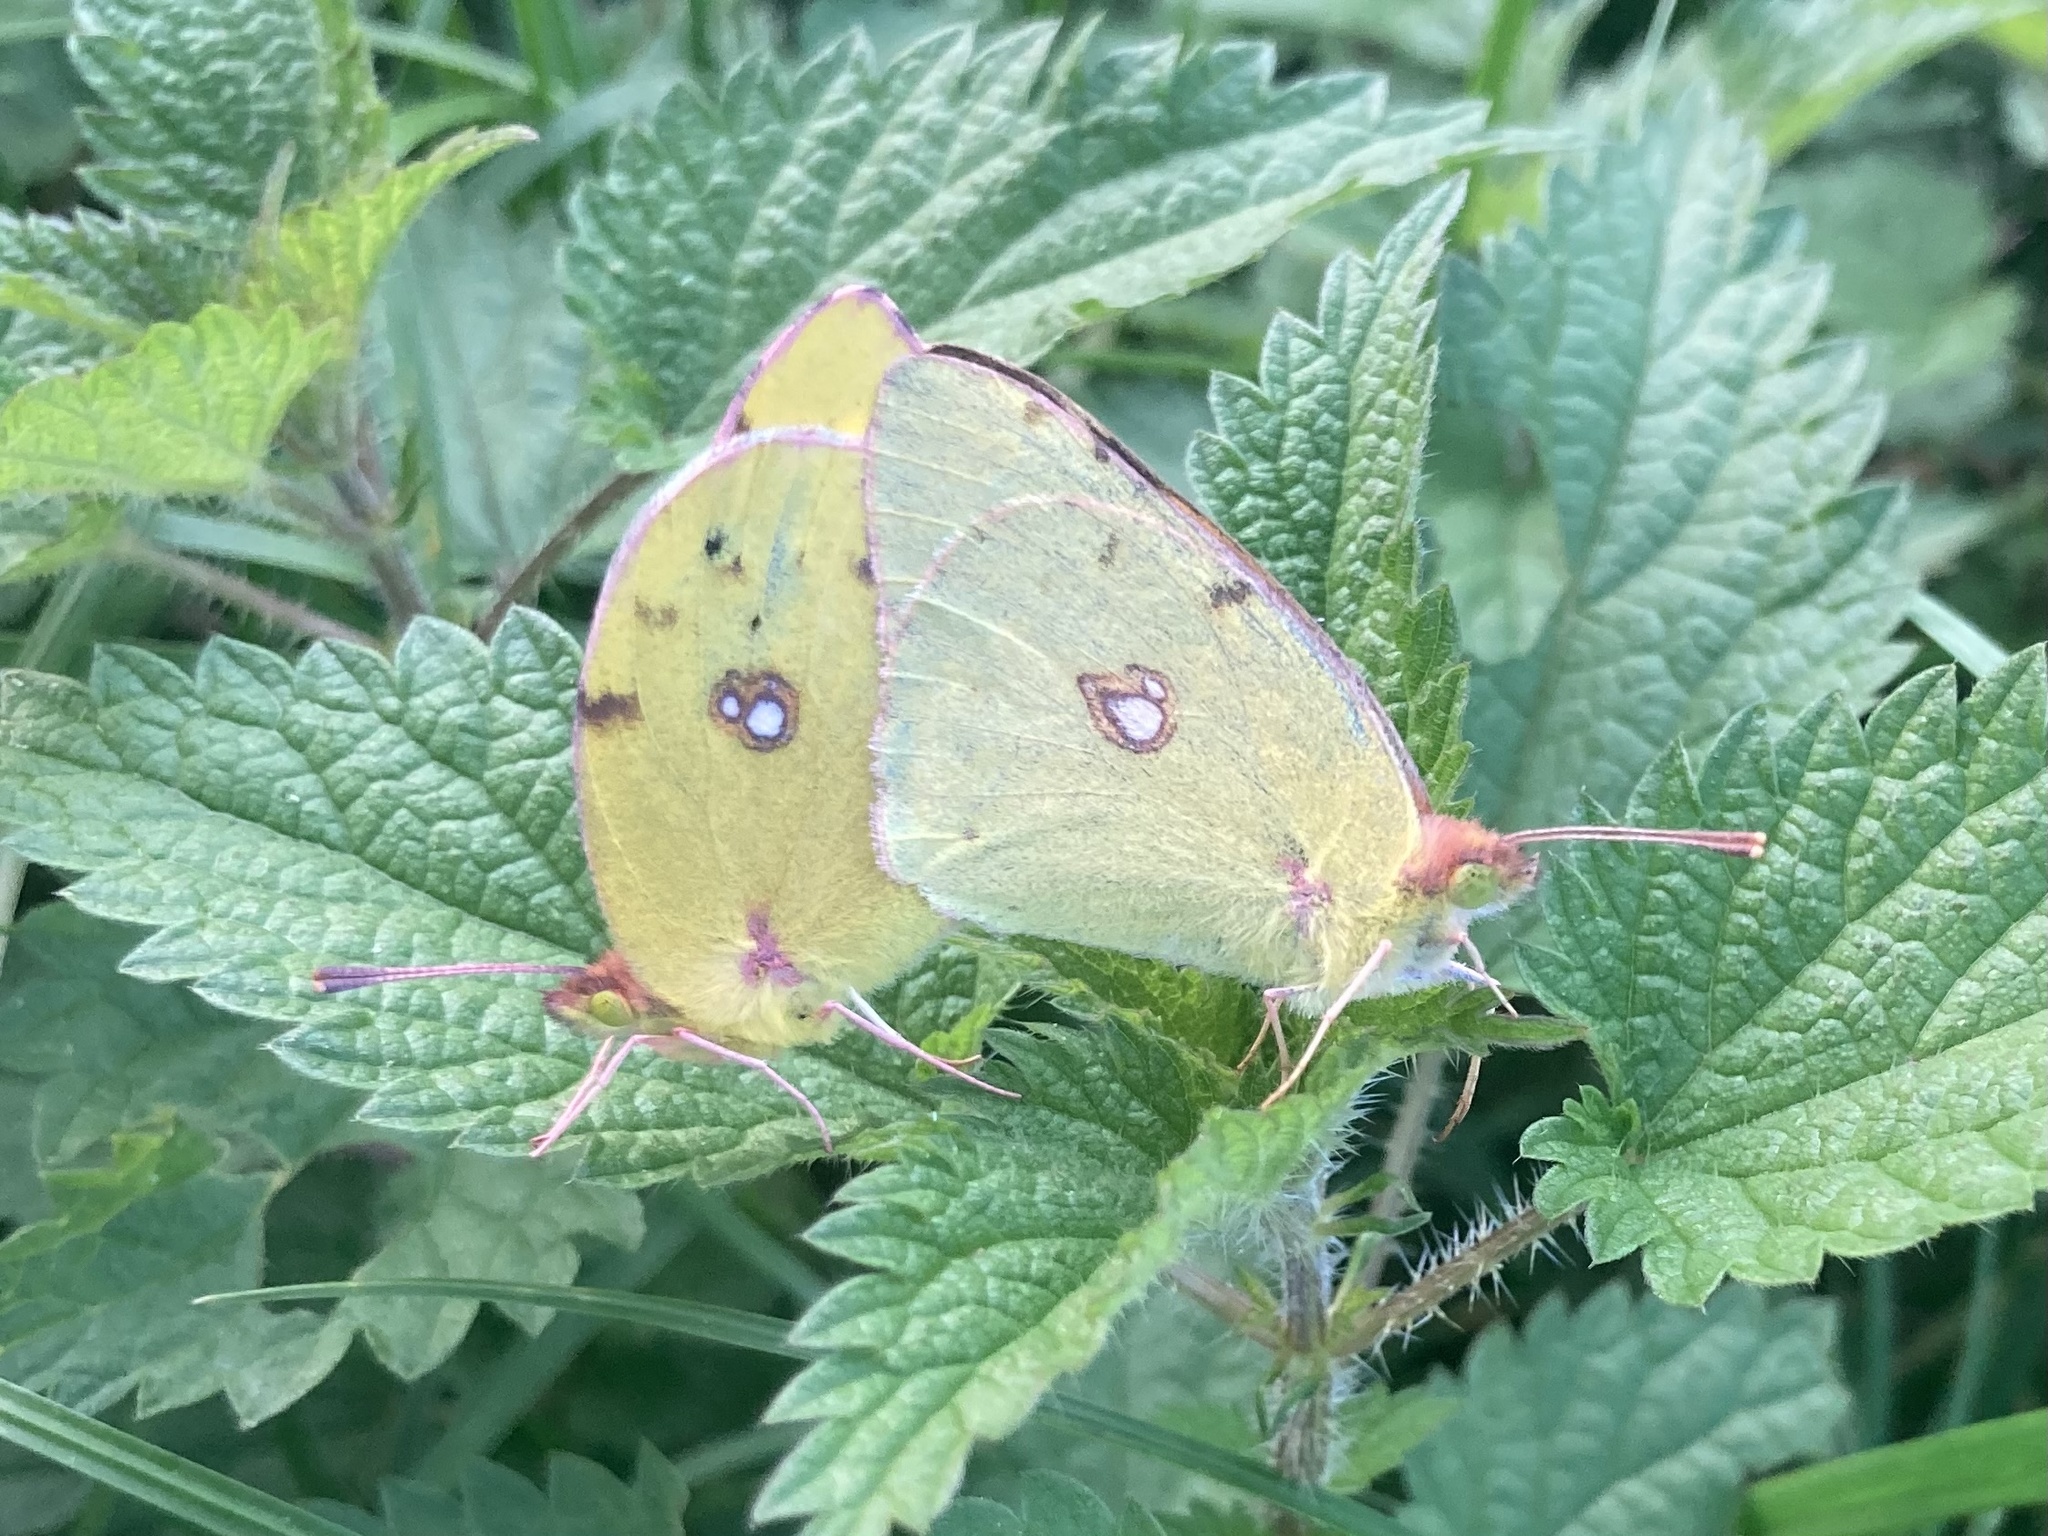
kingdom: Animalia
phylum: Arthropoda
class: Insecta
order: Lepidoptera
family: Pieridae
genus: Colias
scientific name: Colias croceus
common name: Clouded yellow
